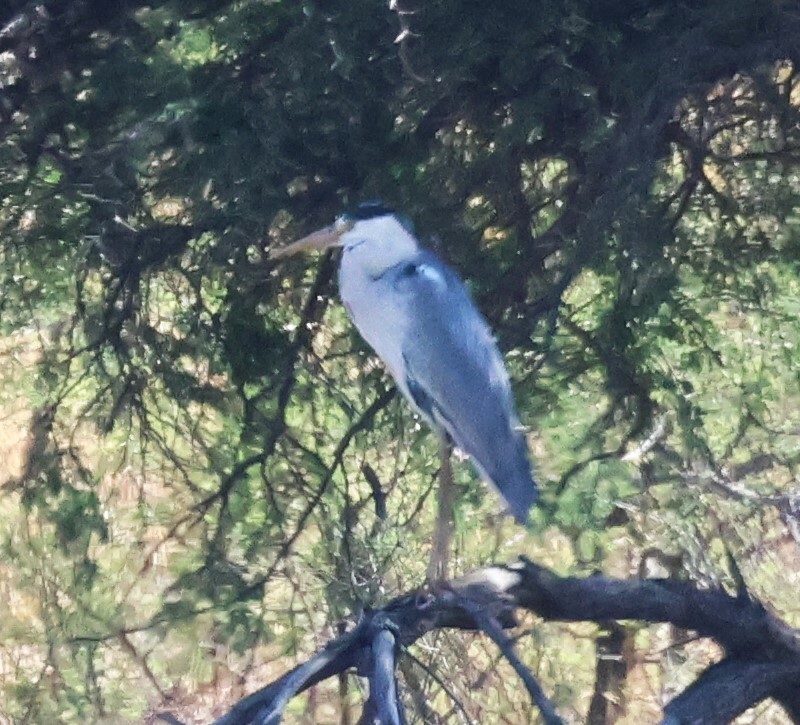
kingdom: Animalia
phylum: Chordata
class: Aves
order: Pelecaniformes
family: Ardeidae
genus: Ardea
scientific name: Ardea cinerea
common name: Grey heron
